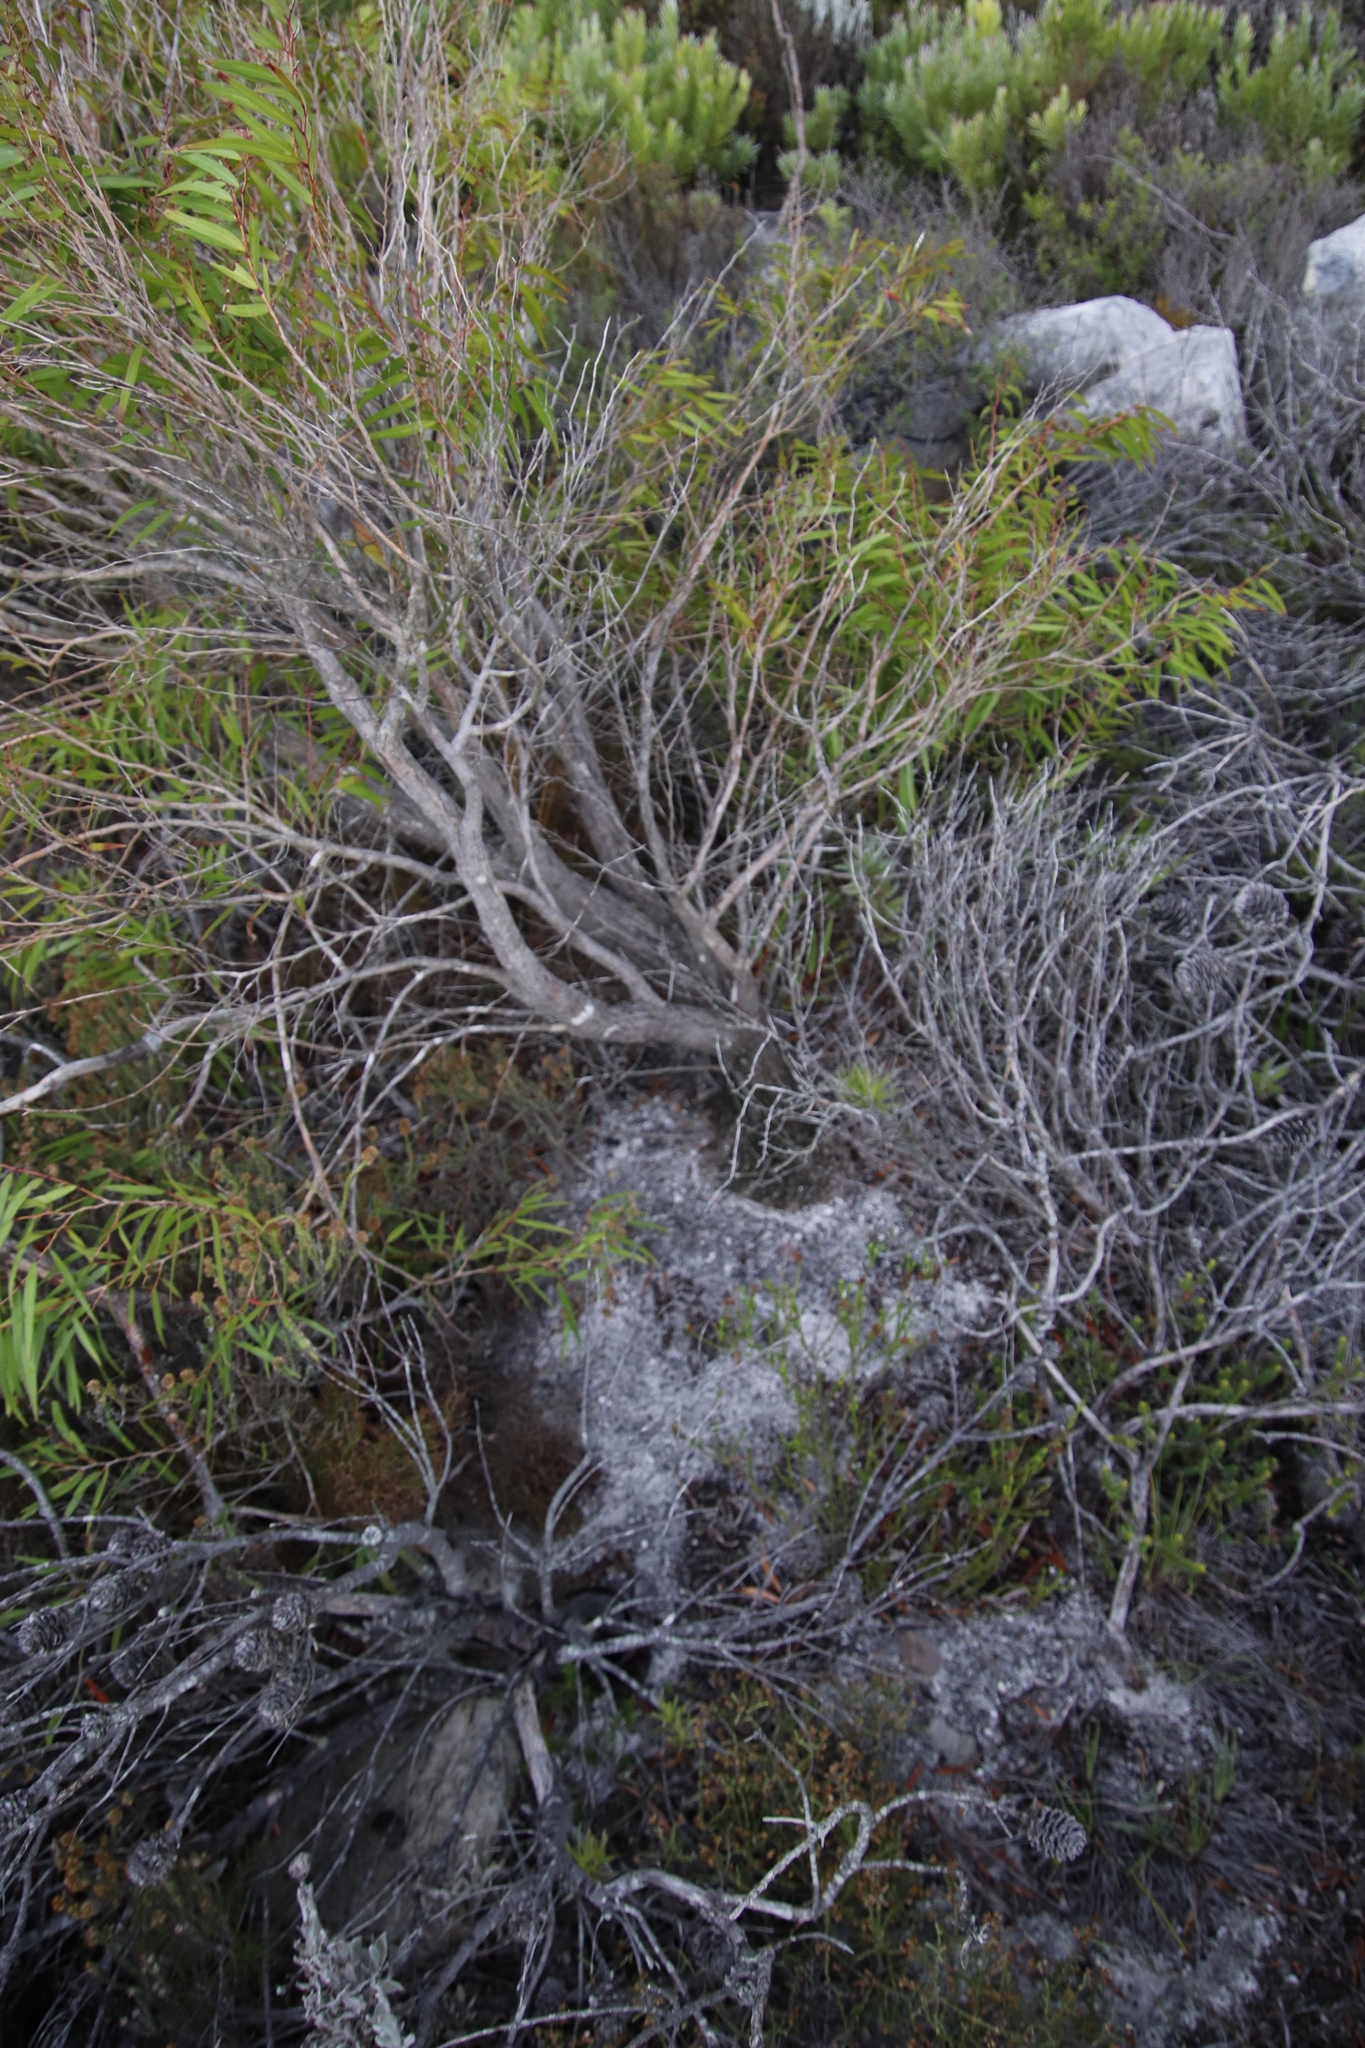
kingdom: Plantae
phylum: Tracheophyta
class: Magnoliopsida
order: Myrtales
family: Myrtaceae
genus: Agonis
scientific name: Agonis flexuosa
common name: Willow myrtle
